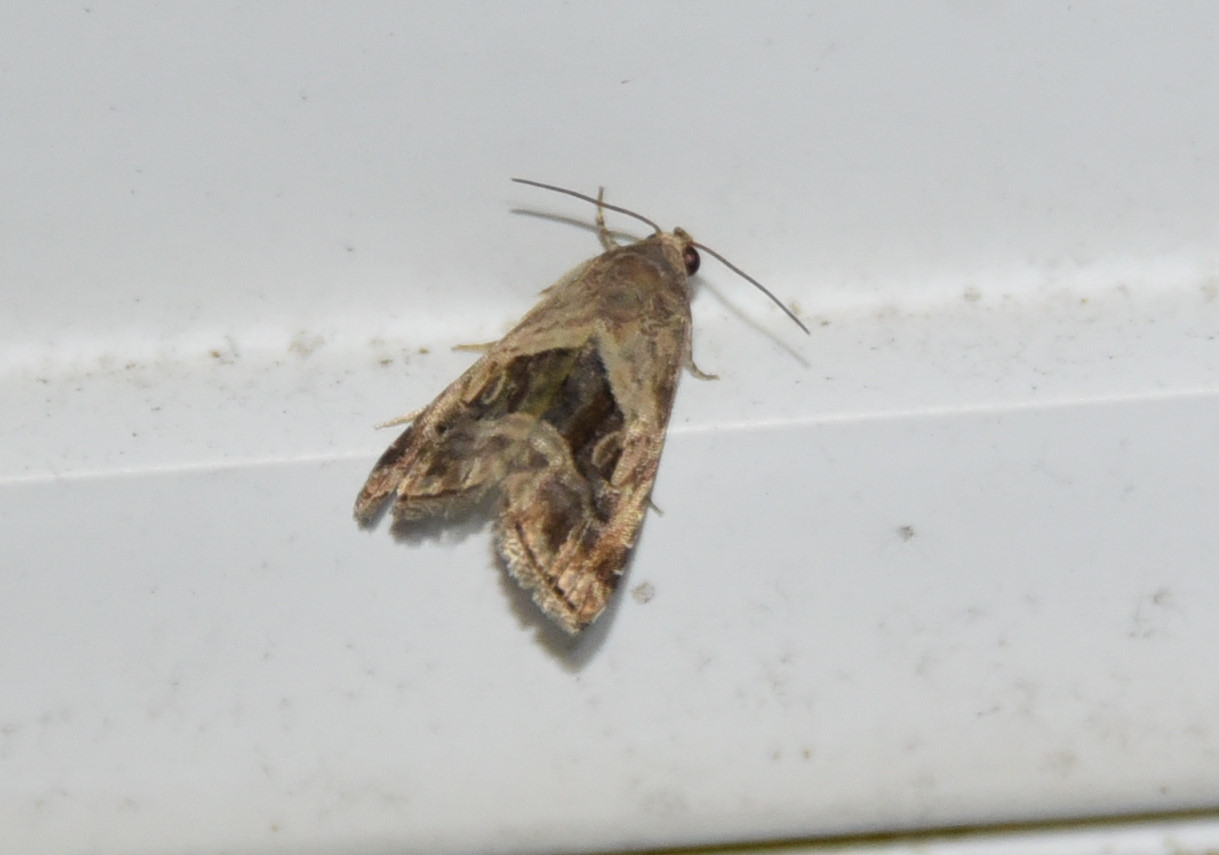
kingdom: Animalia
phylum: Arthropoda
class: Insecta
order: Lepidoptera
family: Noctuidae
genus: Tripudia
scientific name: Tripudia quadrifera
